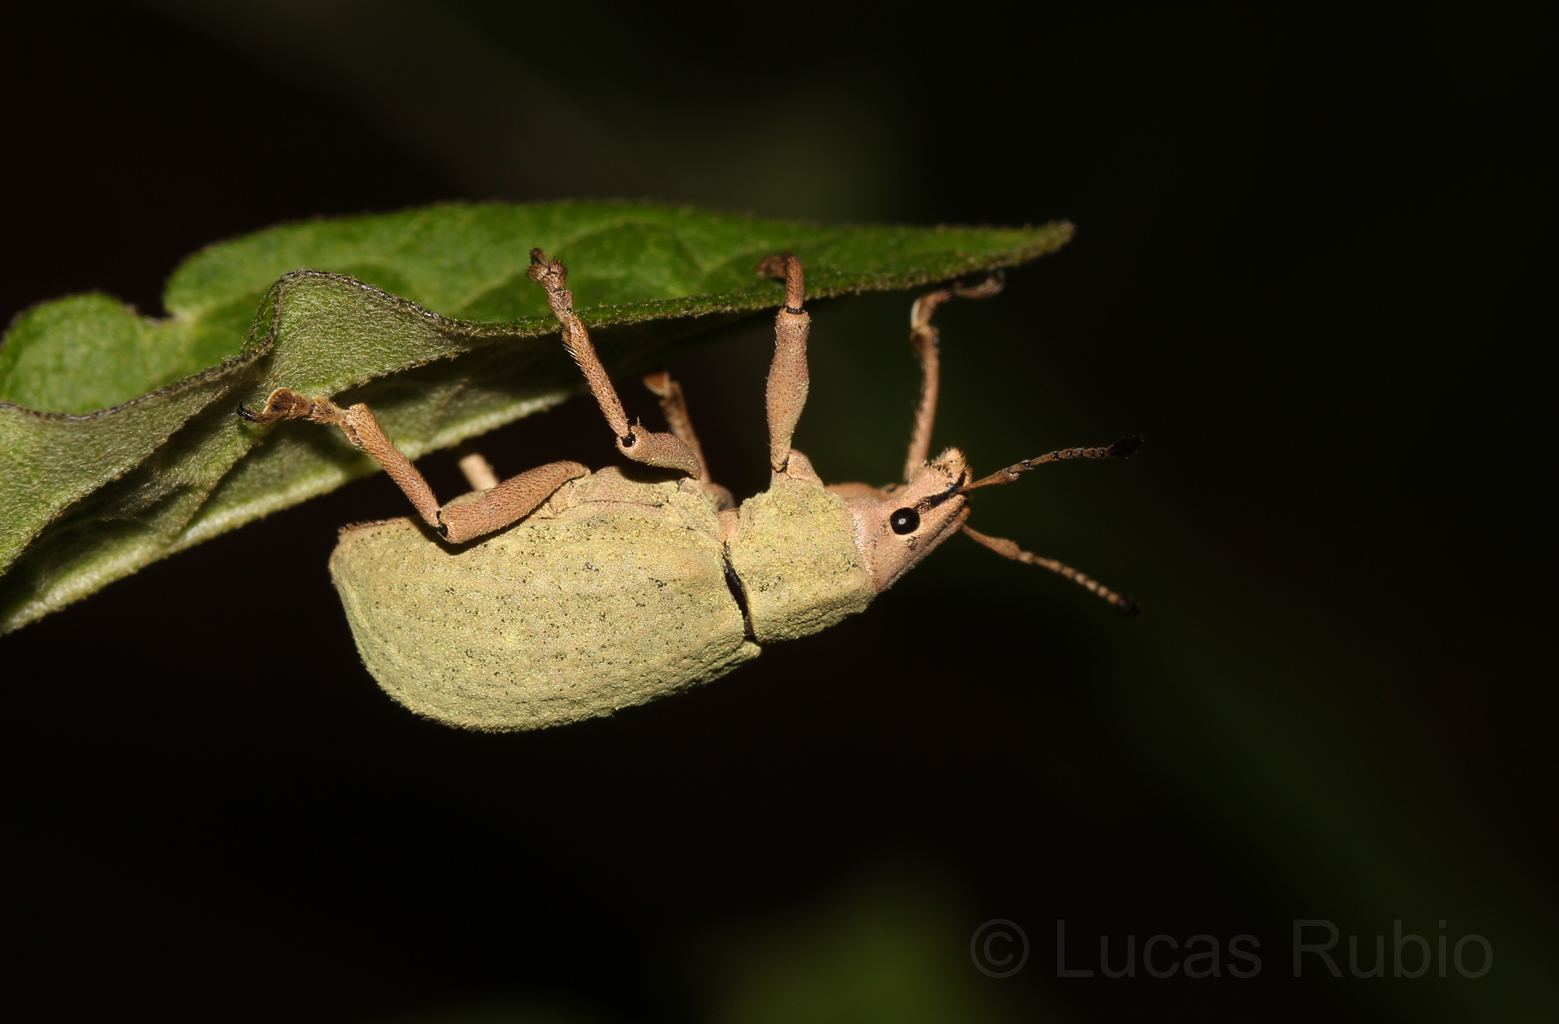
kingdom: Animalia
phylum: Arthropoda
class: Insecta
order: Coleoptera
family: Curculionidae
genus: Cyrtomon
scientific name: Cyrtomon luridus
